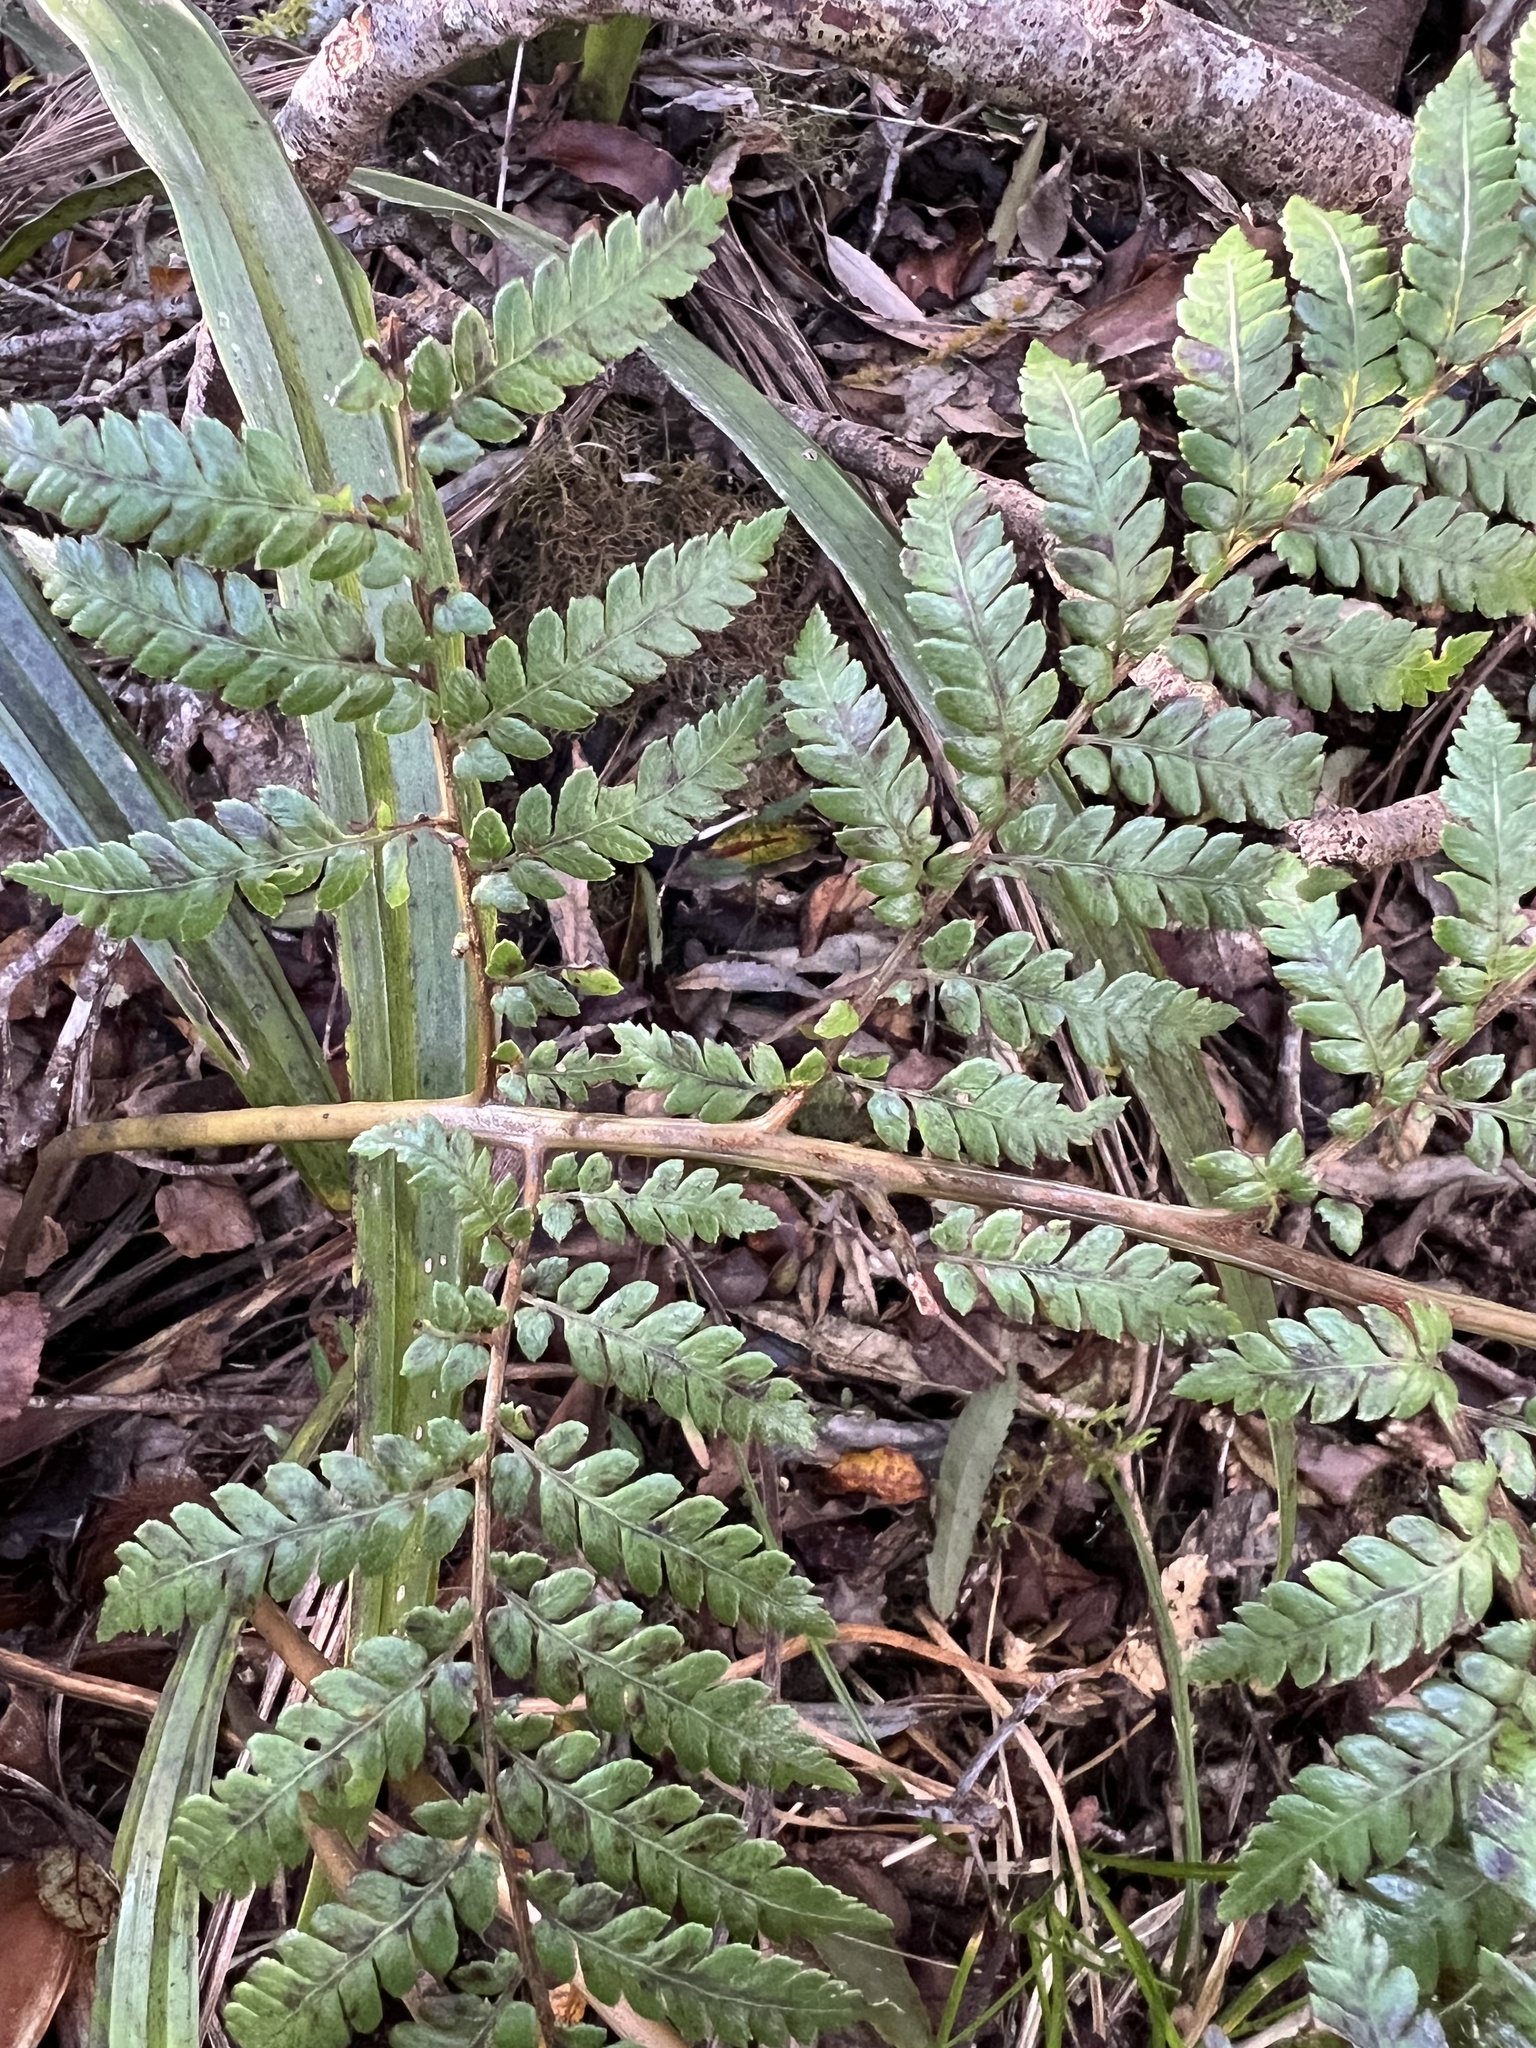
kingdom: Plantae
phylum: Tracheophyta
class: Polypodiopsida
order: Cyatheales
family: Dicksoniaceae
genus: Dicksonia
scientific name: Dicksonia lanata
